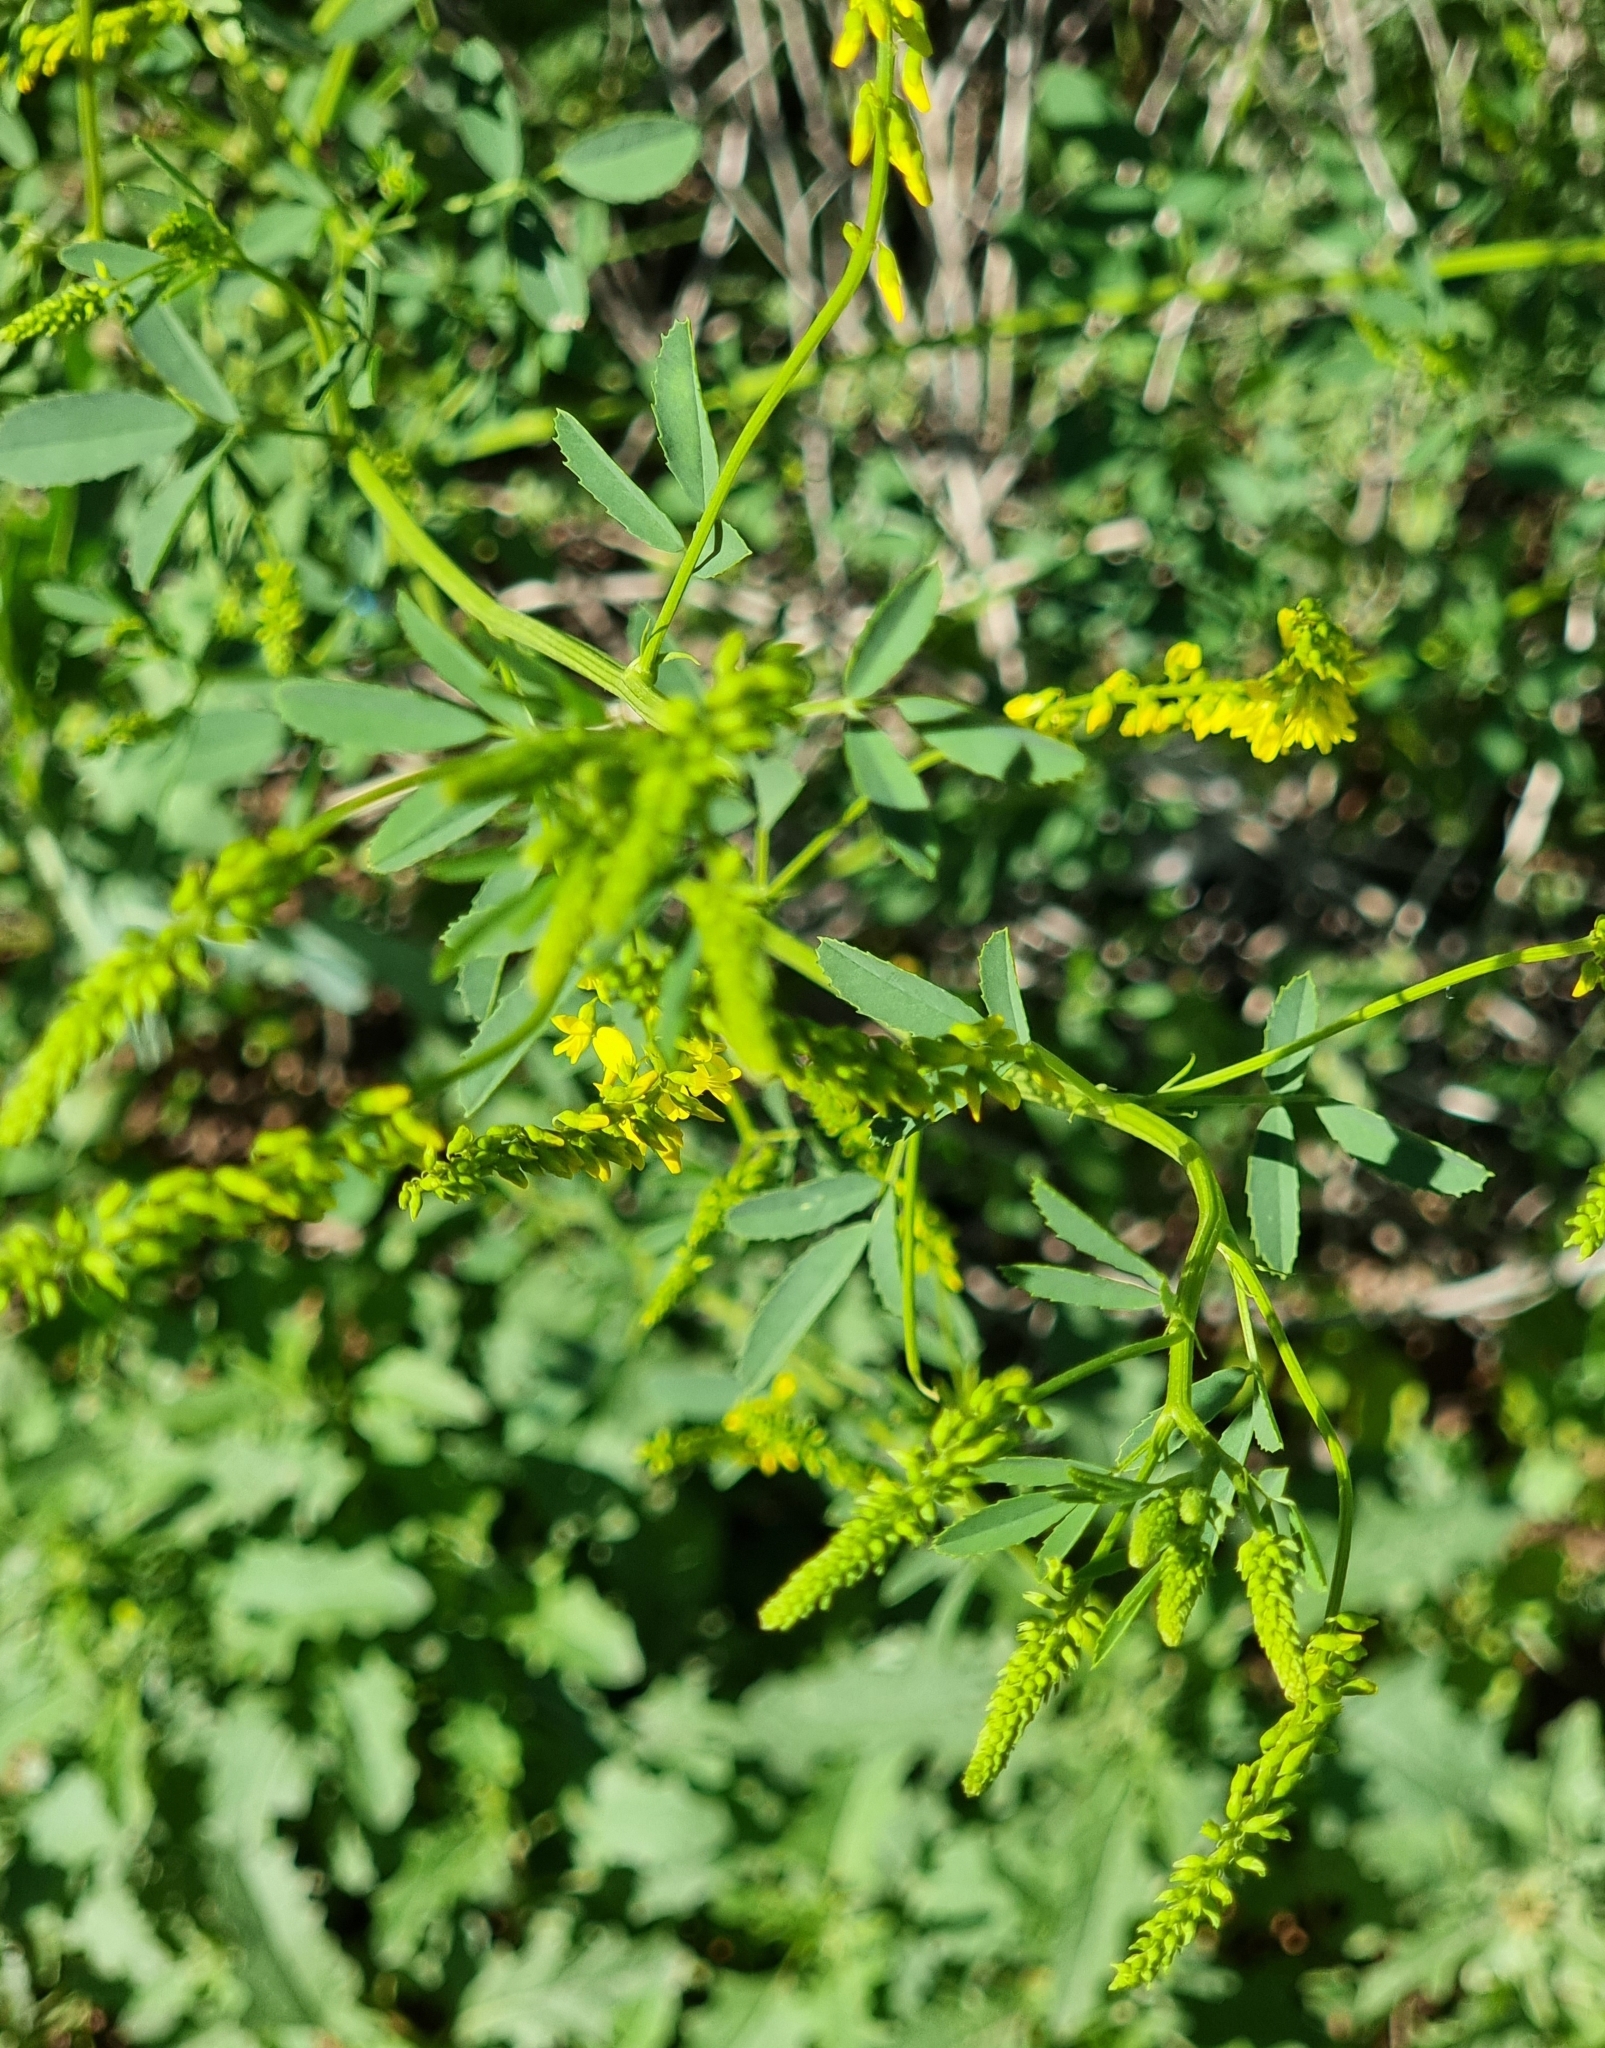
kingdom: Plantae
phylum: Tracheophyta
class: Magnoliopsida
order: Fabales
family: Fabaceae
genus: Melilotus
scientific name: Melilotus officinalis
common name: Sweetclover
